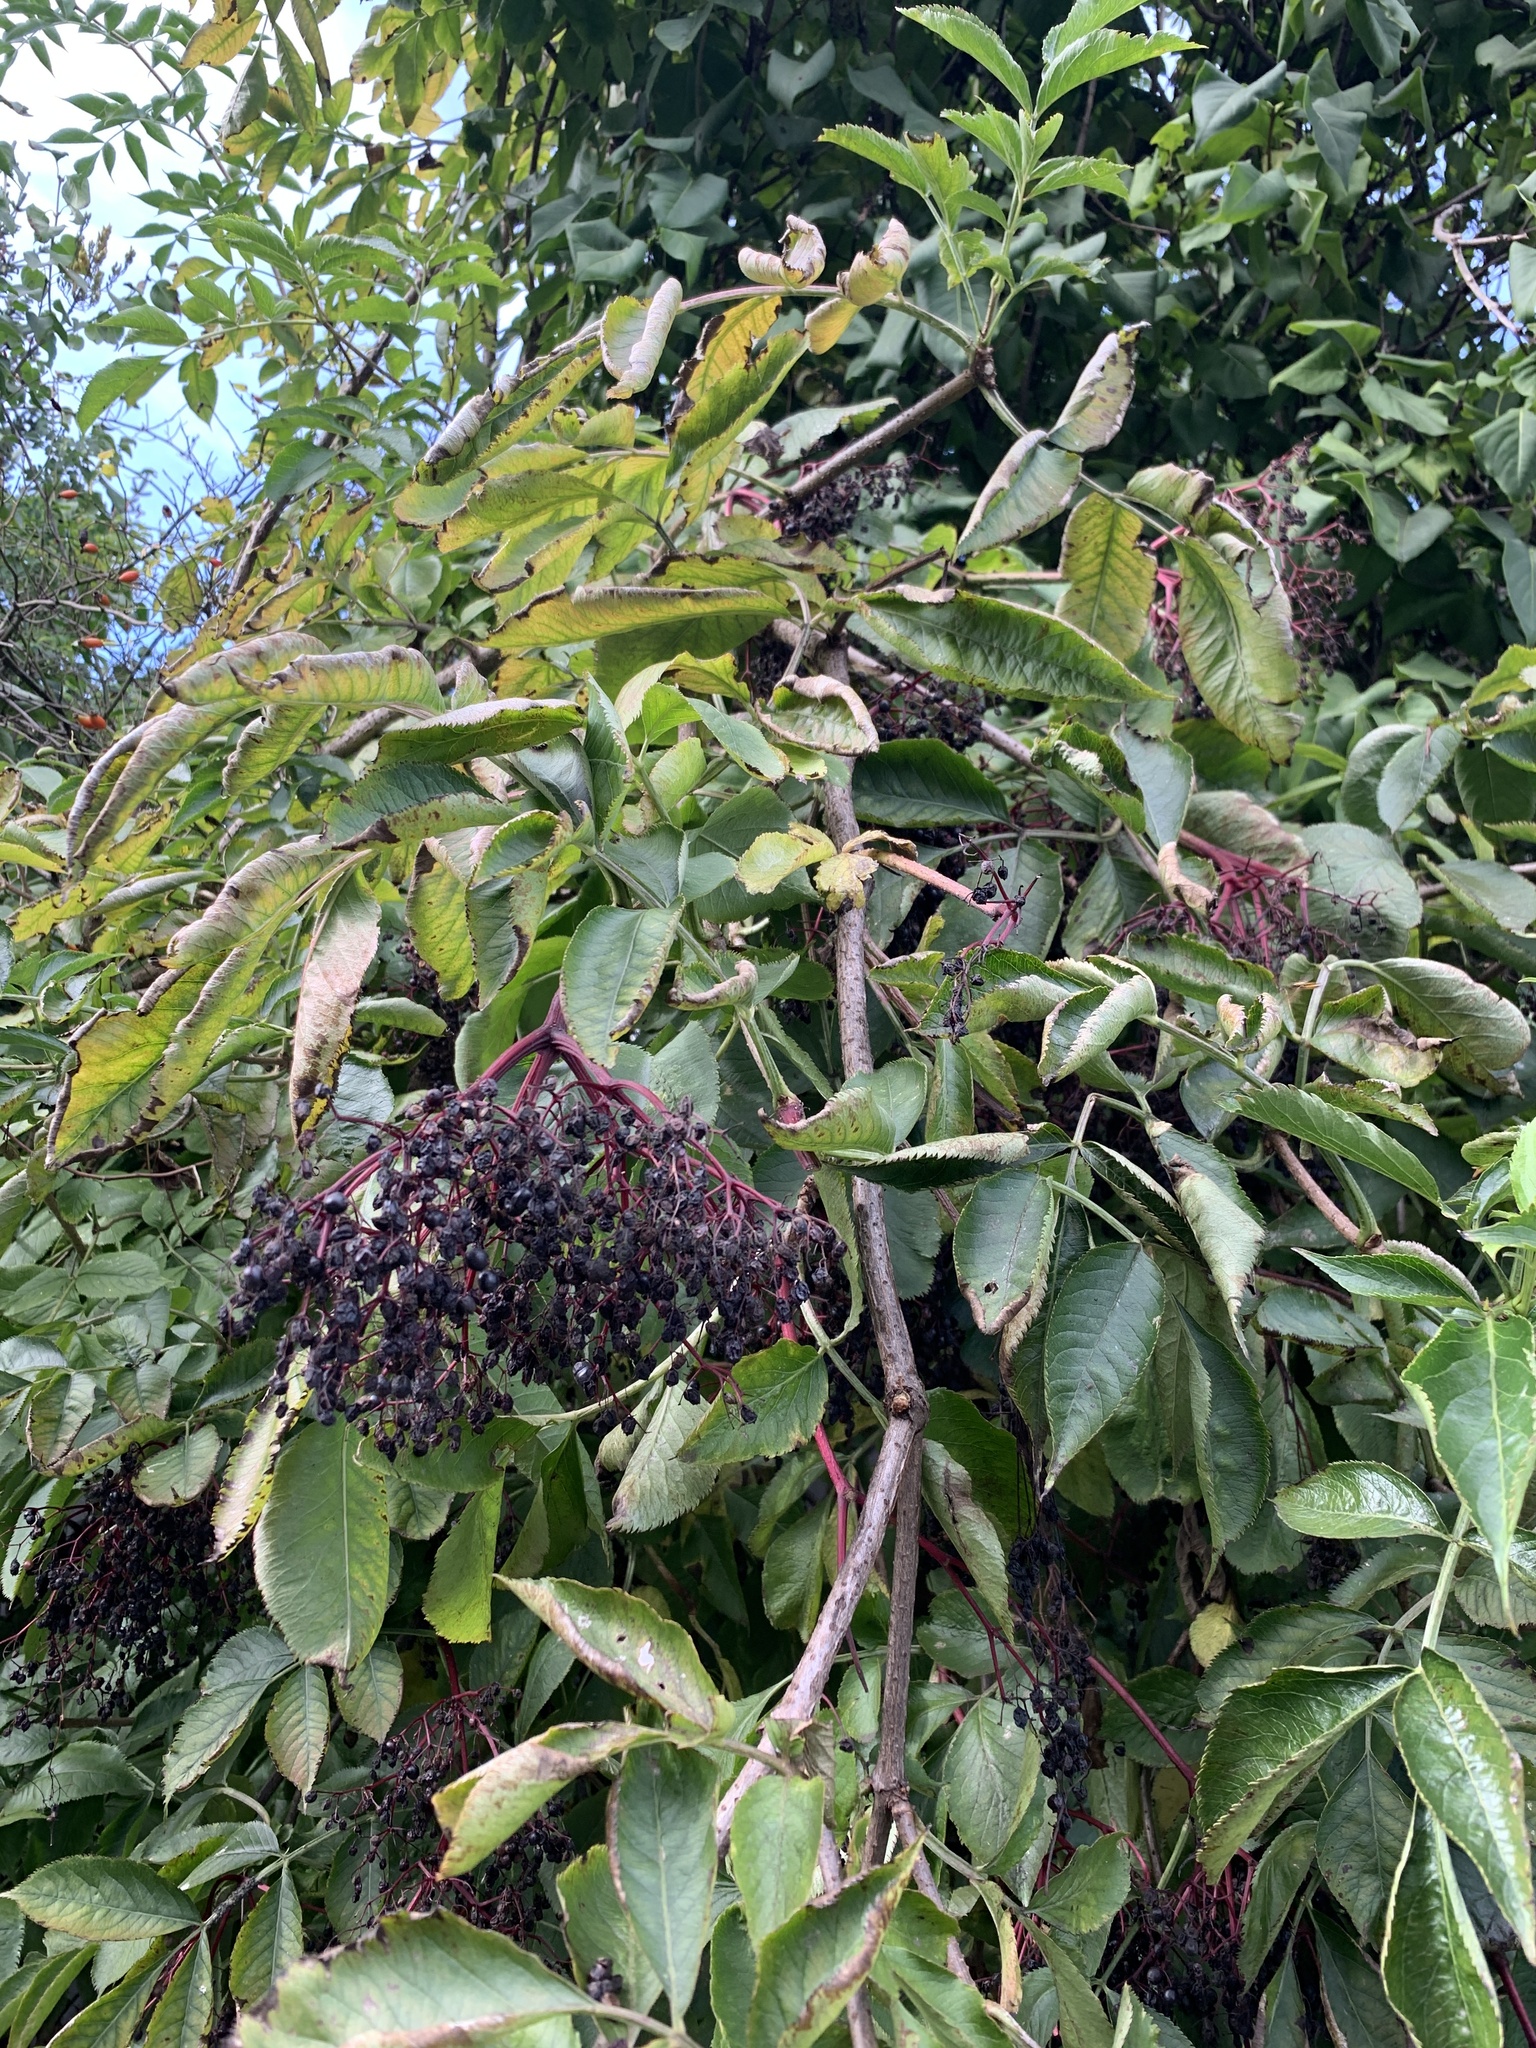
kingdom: Plantae
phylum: Tracheophyta
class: Magnoliopsida
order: Dipsacales
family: Viburnaceae
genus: Sambucus
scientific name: Sambucus nigra
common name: Elder
